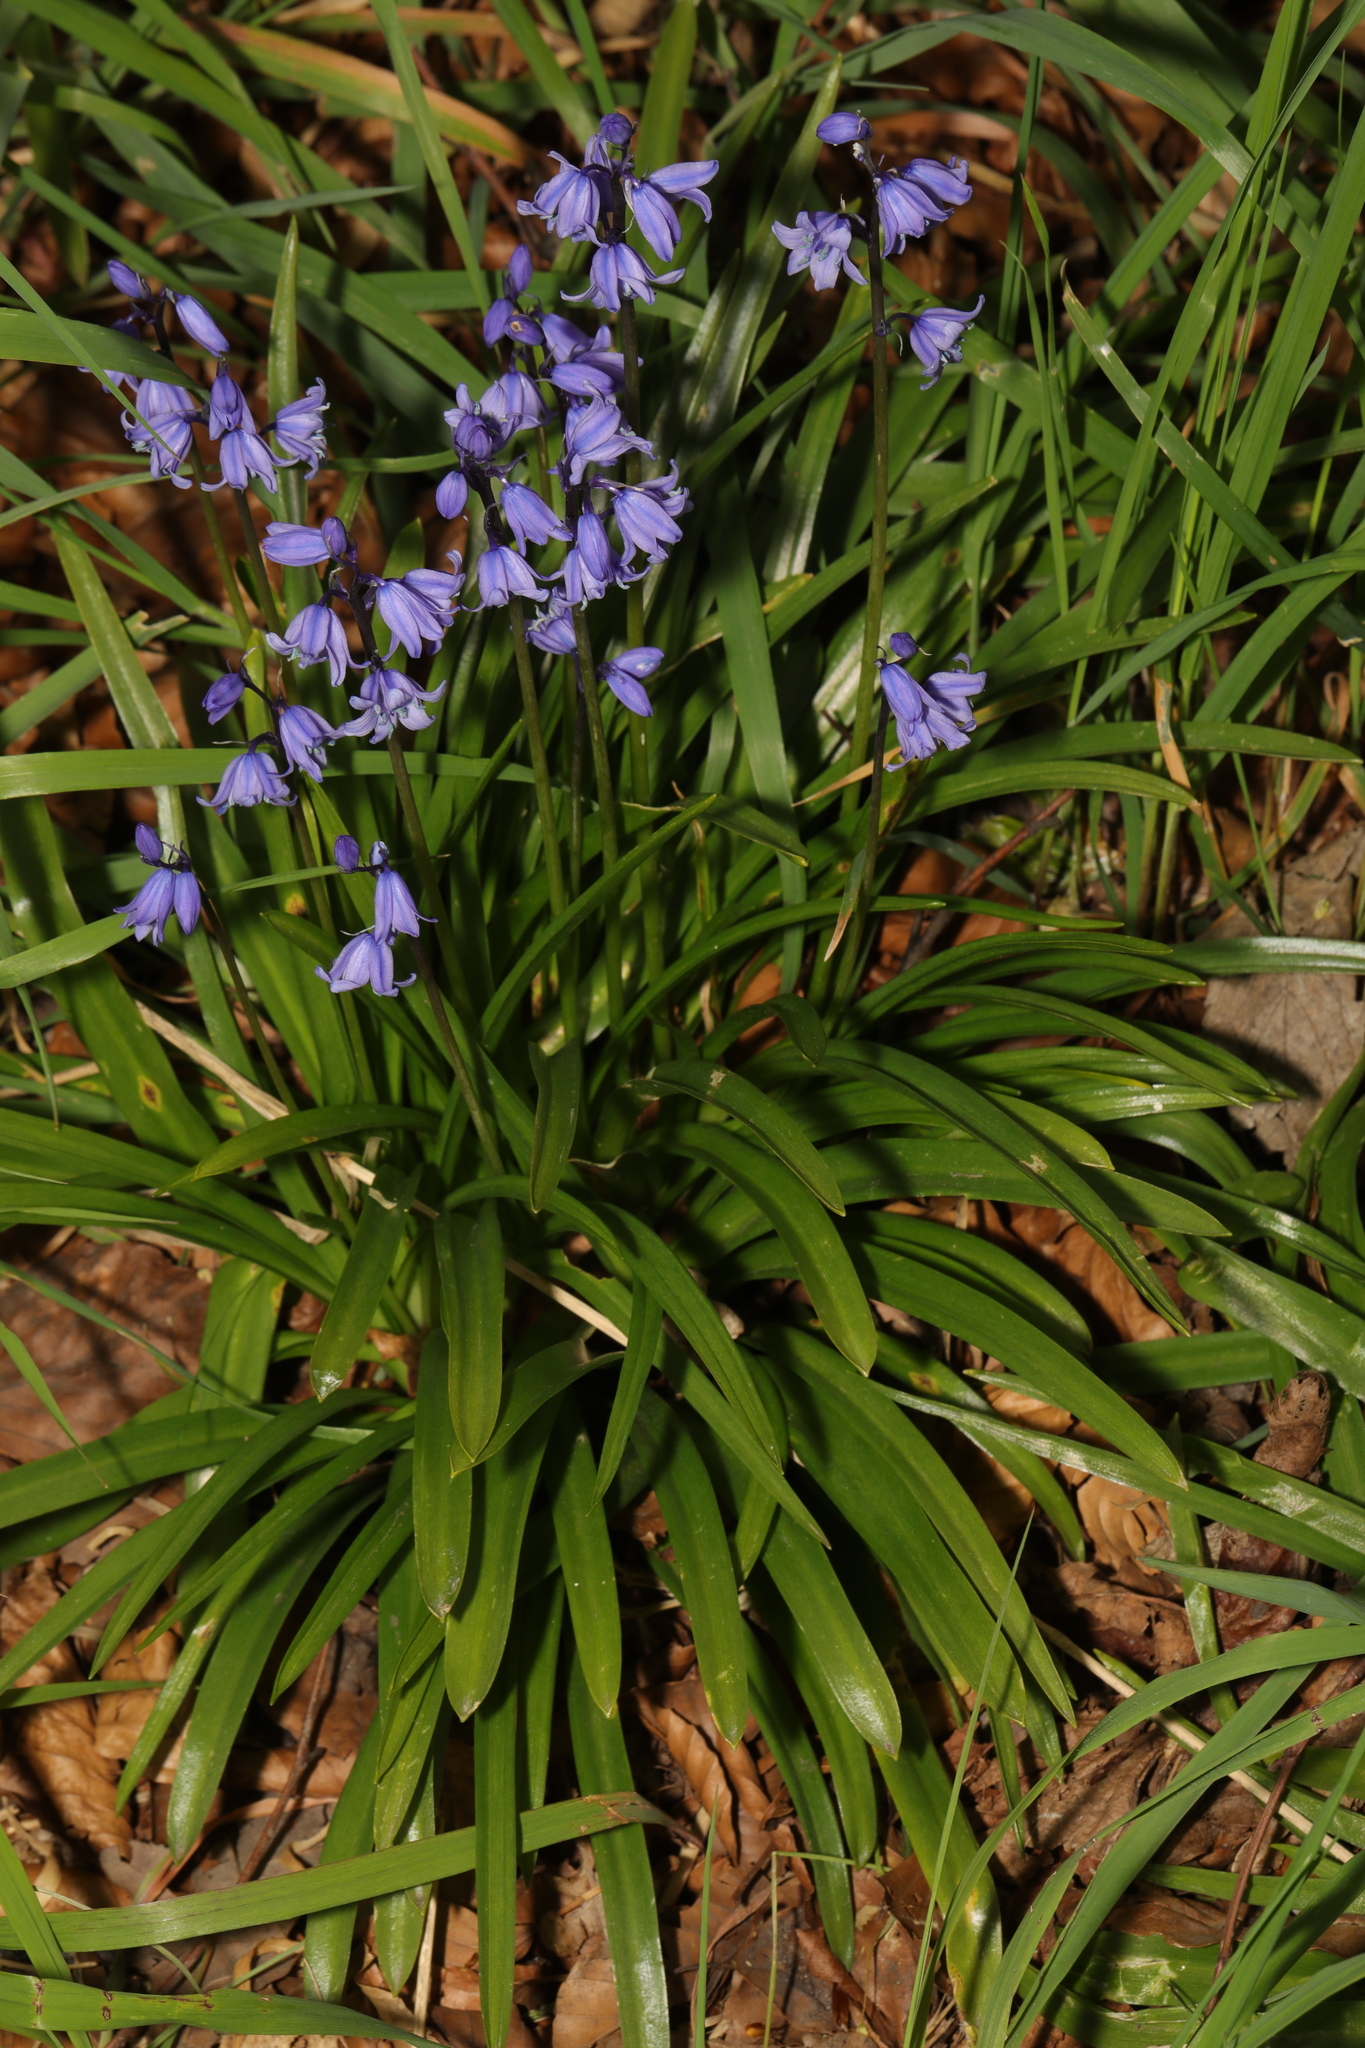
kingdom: Plantae
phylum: Tracheophyta
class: Liliopsida
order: Asparagales
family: Asparagaceae
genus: Hyacinthoides
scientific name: Hyacinthoides massartiana
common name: Hyacinthoides
